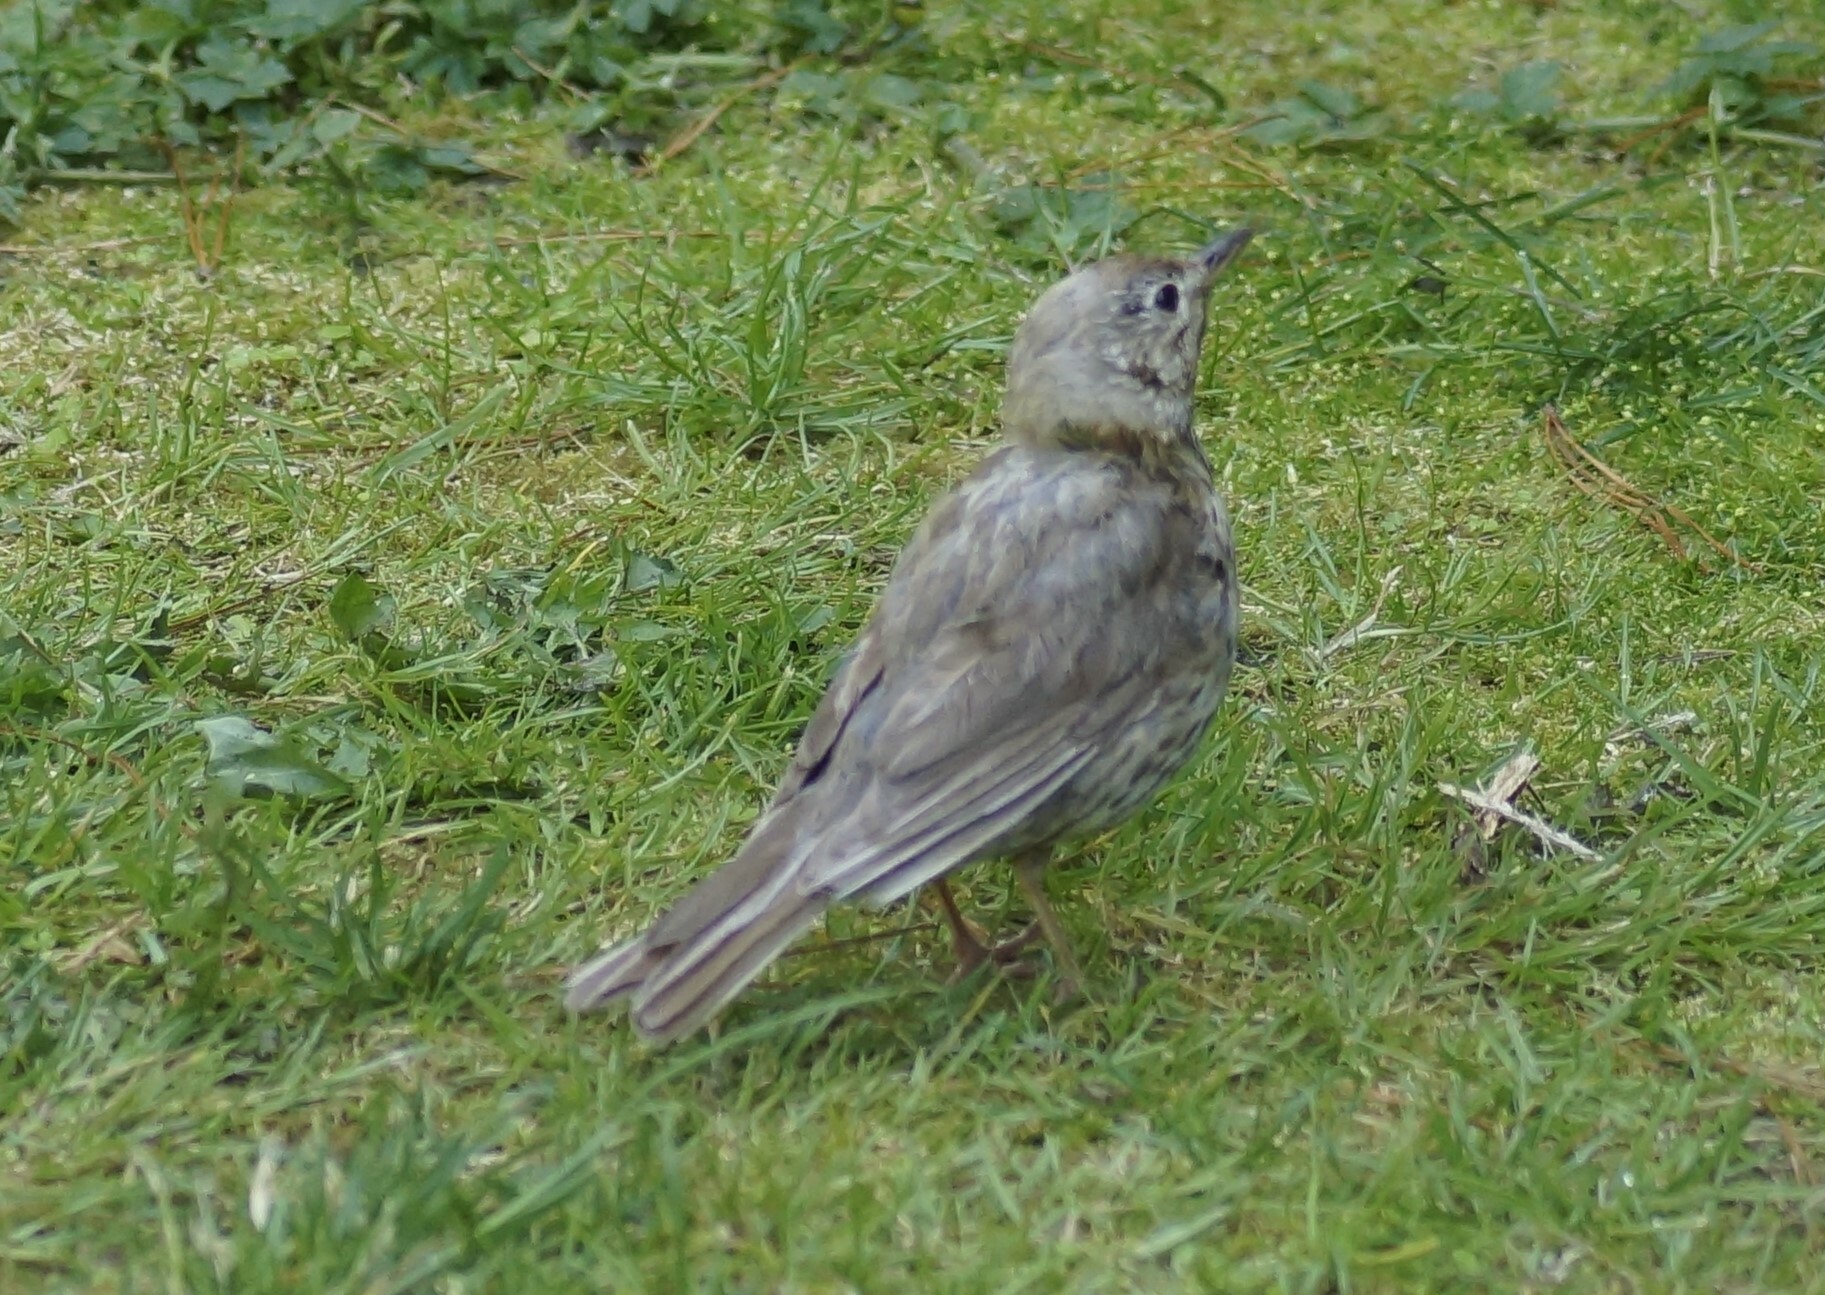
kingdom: Animalia
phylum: Chordata
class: Aves
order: Passeriformes
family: Turdidae
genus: Turdus
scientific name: Turdus philomelos
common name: Song thrush
